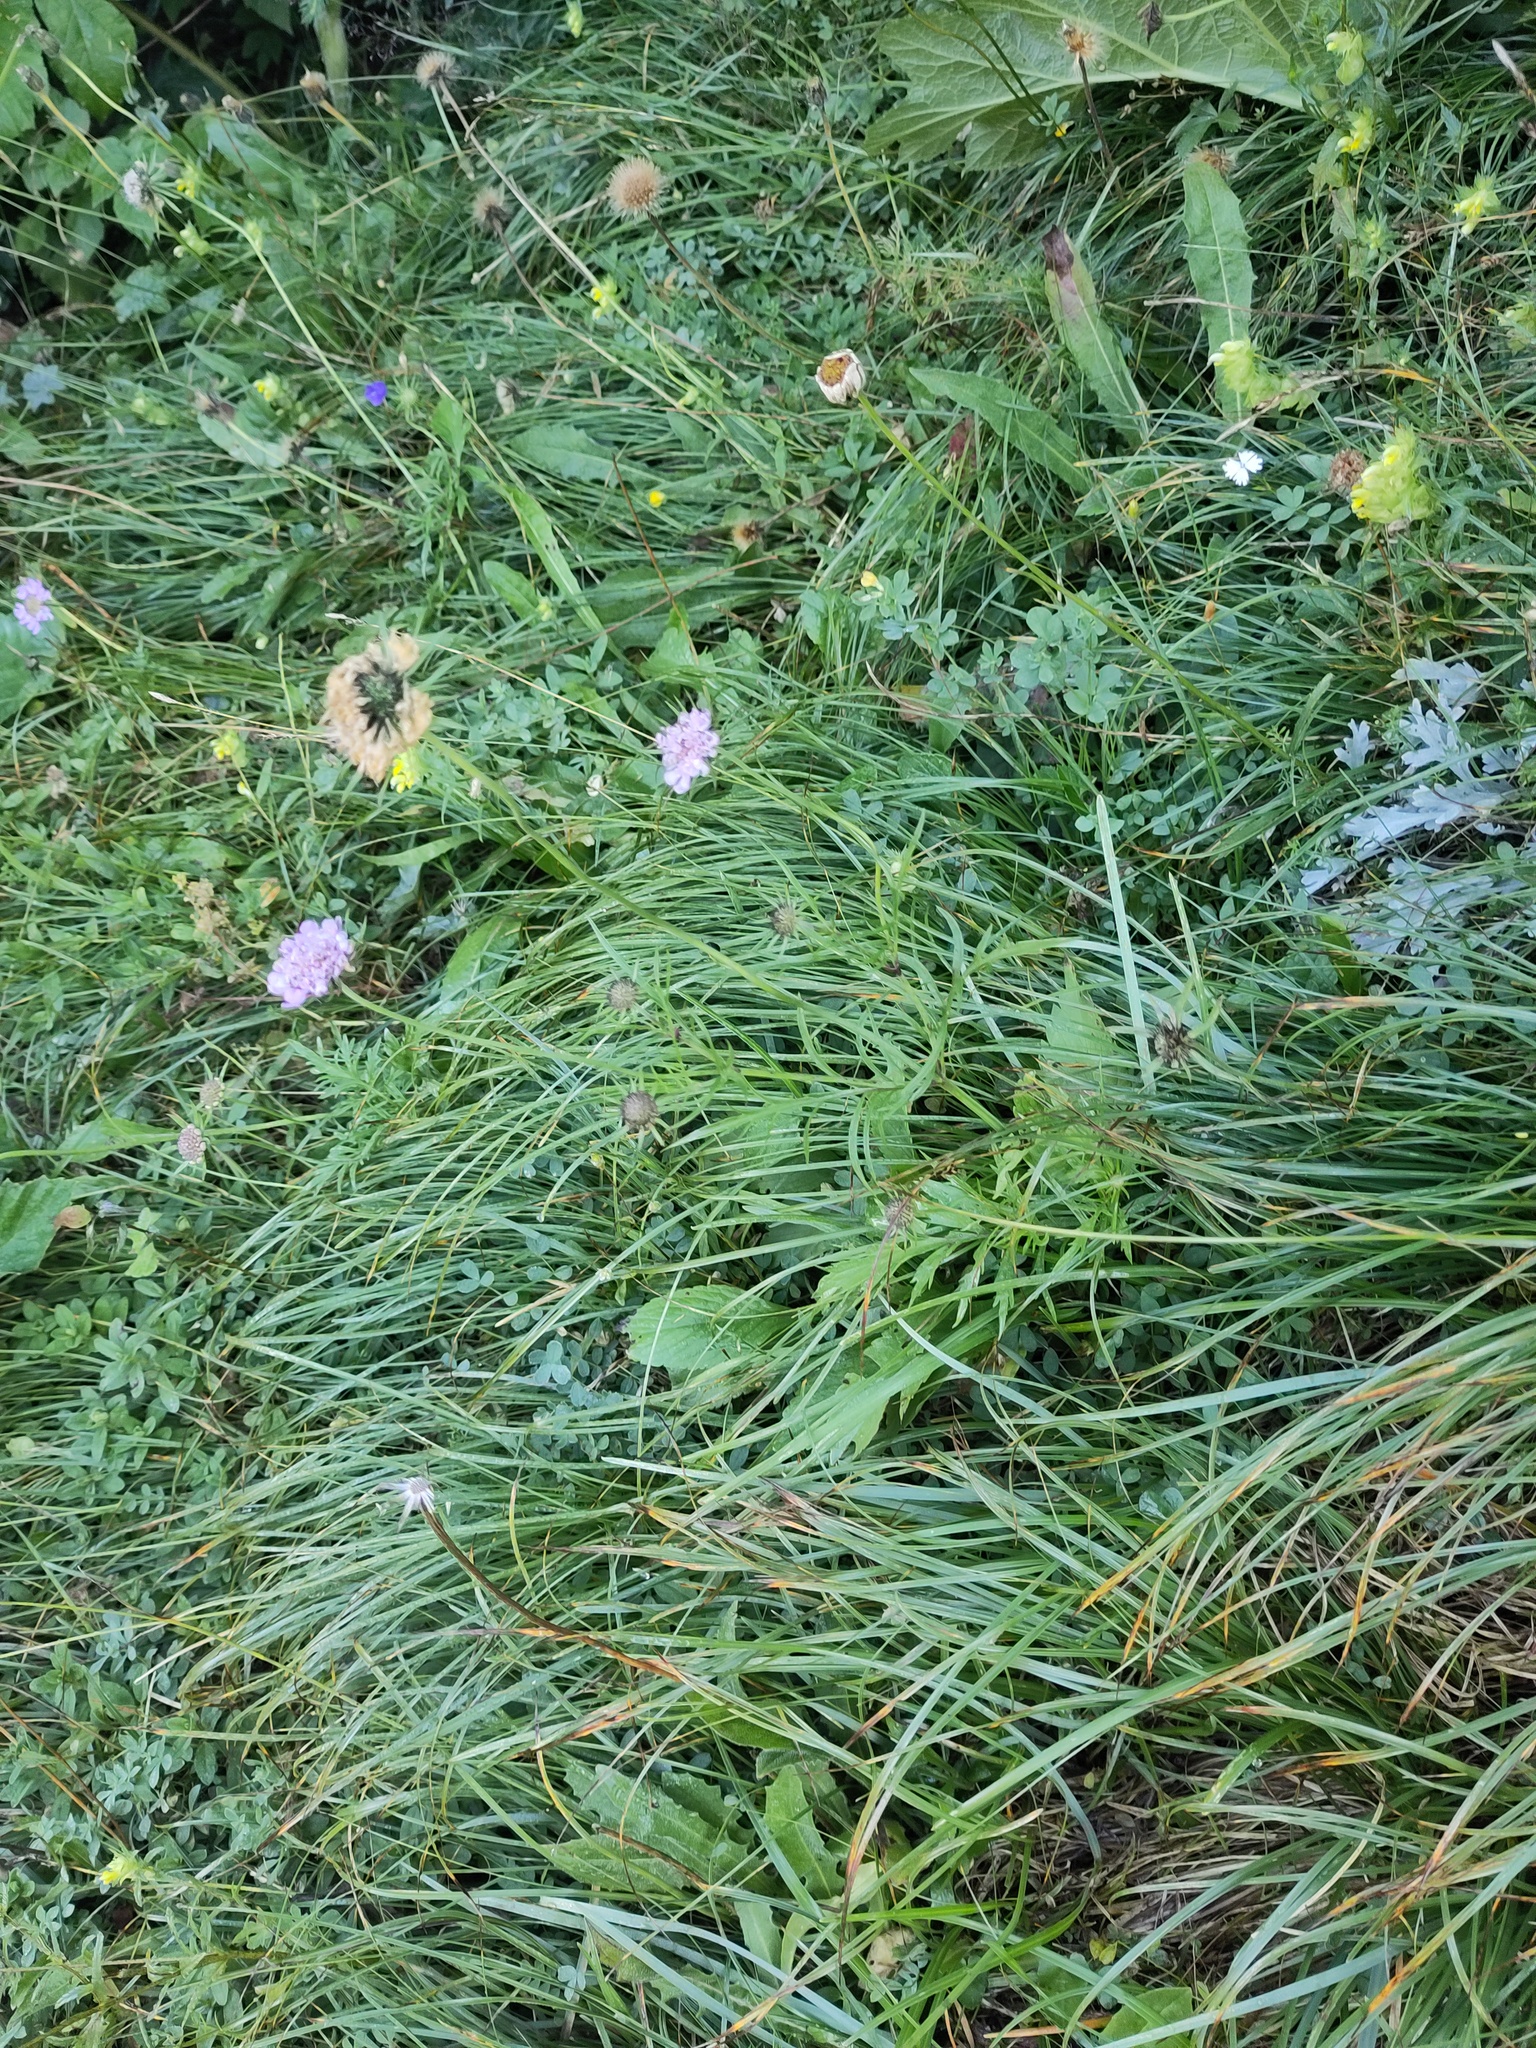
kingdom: Plantae
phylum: Tracheophyta
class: Magnoliopsida
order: Dipsacales
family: Caprifoliaceae
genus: Scabiosa
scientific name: Scabiosa lucida
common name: Shining scabious
